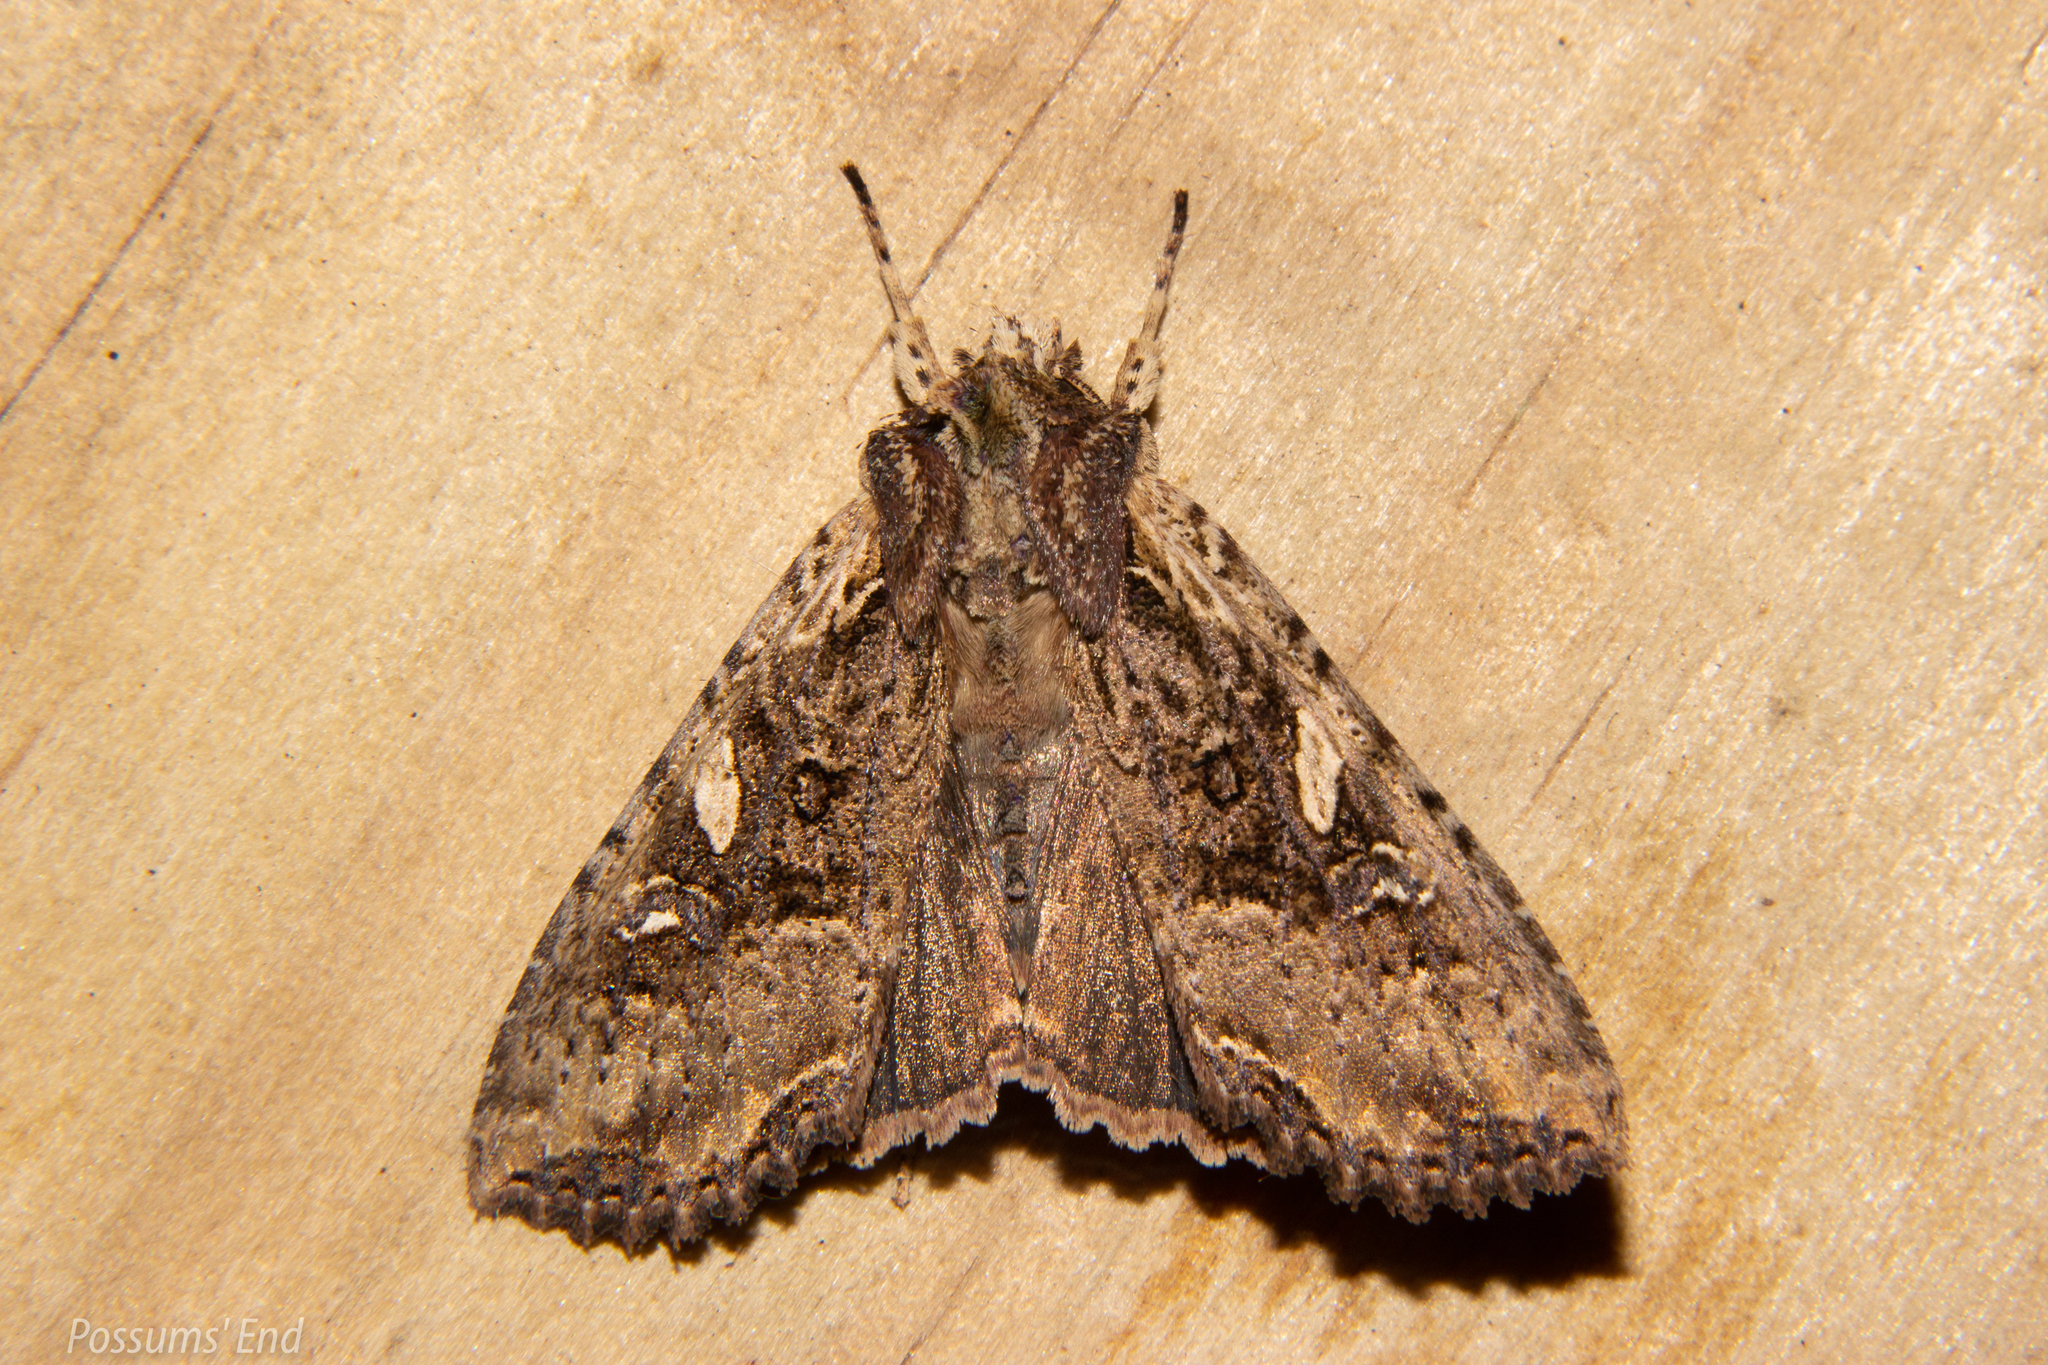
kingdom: Animalia
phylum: Arthropoda
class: Insecta
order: Lepidoptera
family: Noctuidae
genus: Meterana
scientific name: Meterana stipata
